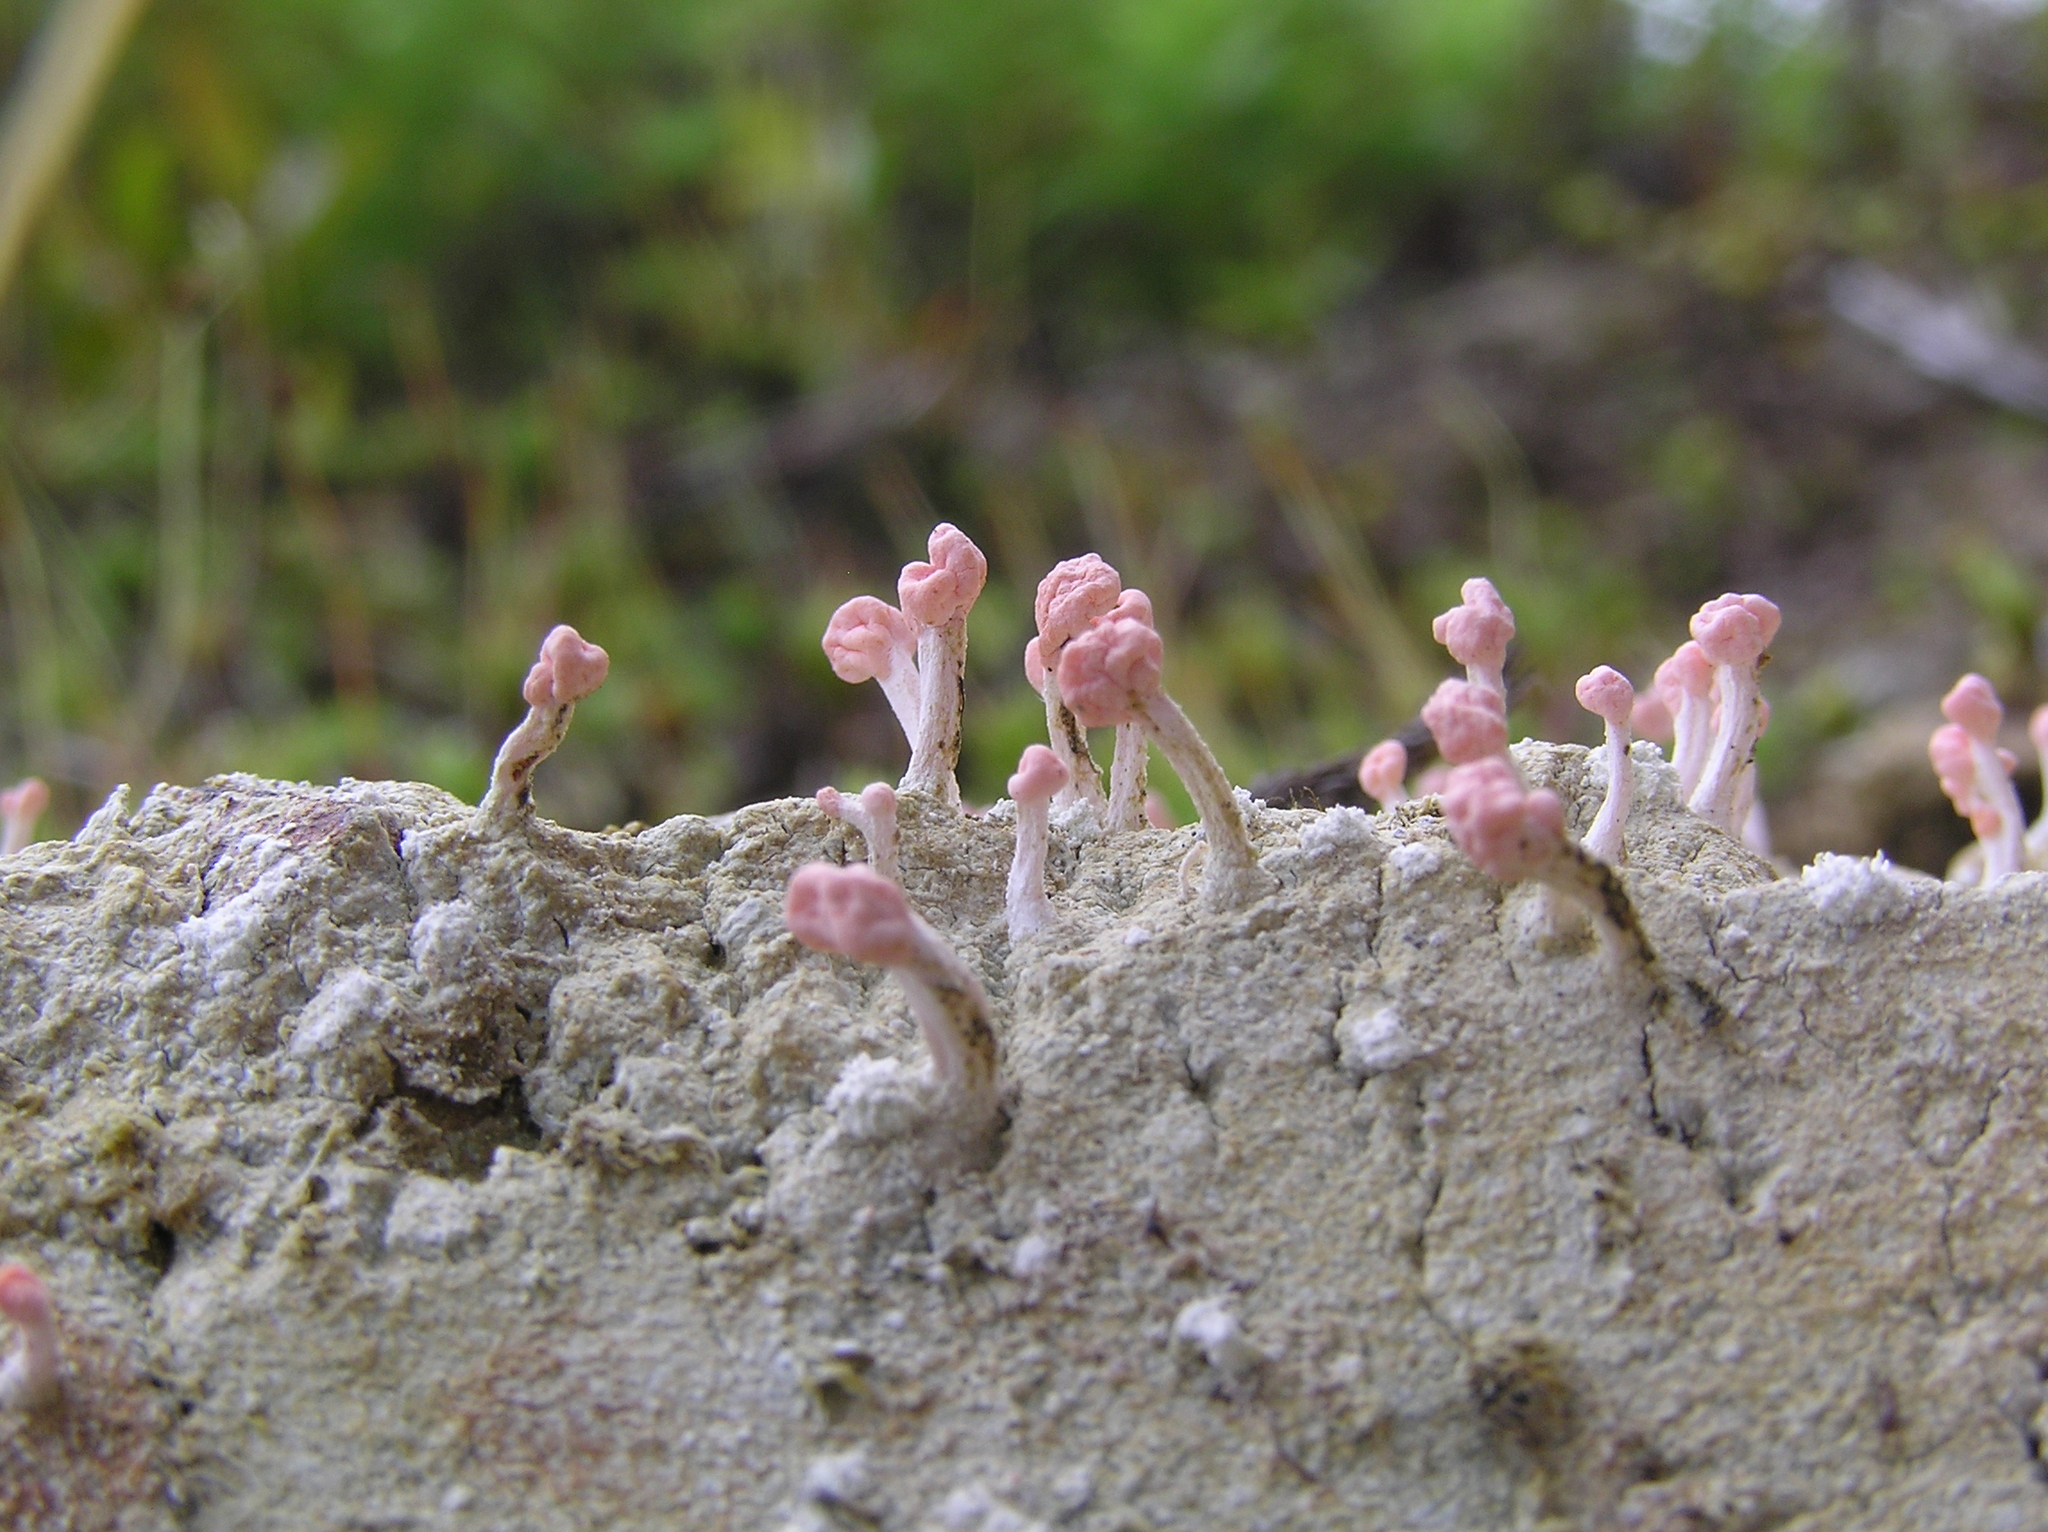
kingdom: Fungi
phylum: Ascomycota
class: Lecanoromycetes
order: Pertusariales
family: Icmadophilaceae
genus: Dibaeis
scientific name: Dibaeis arcuata
